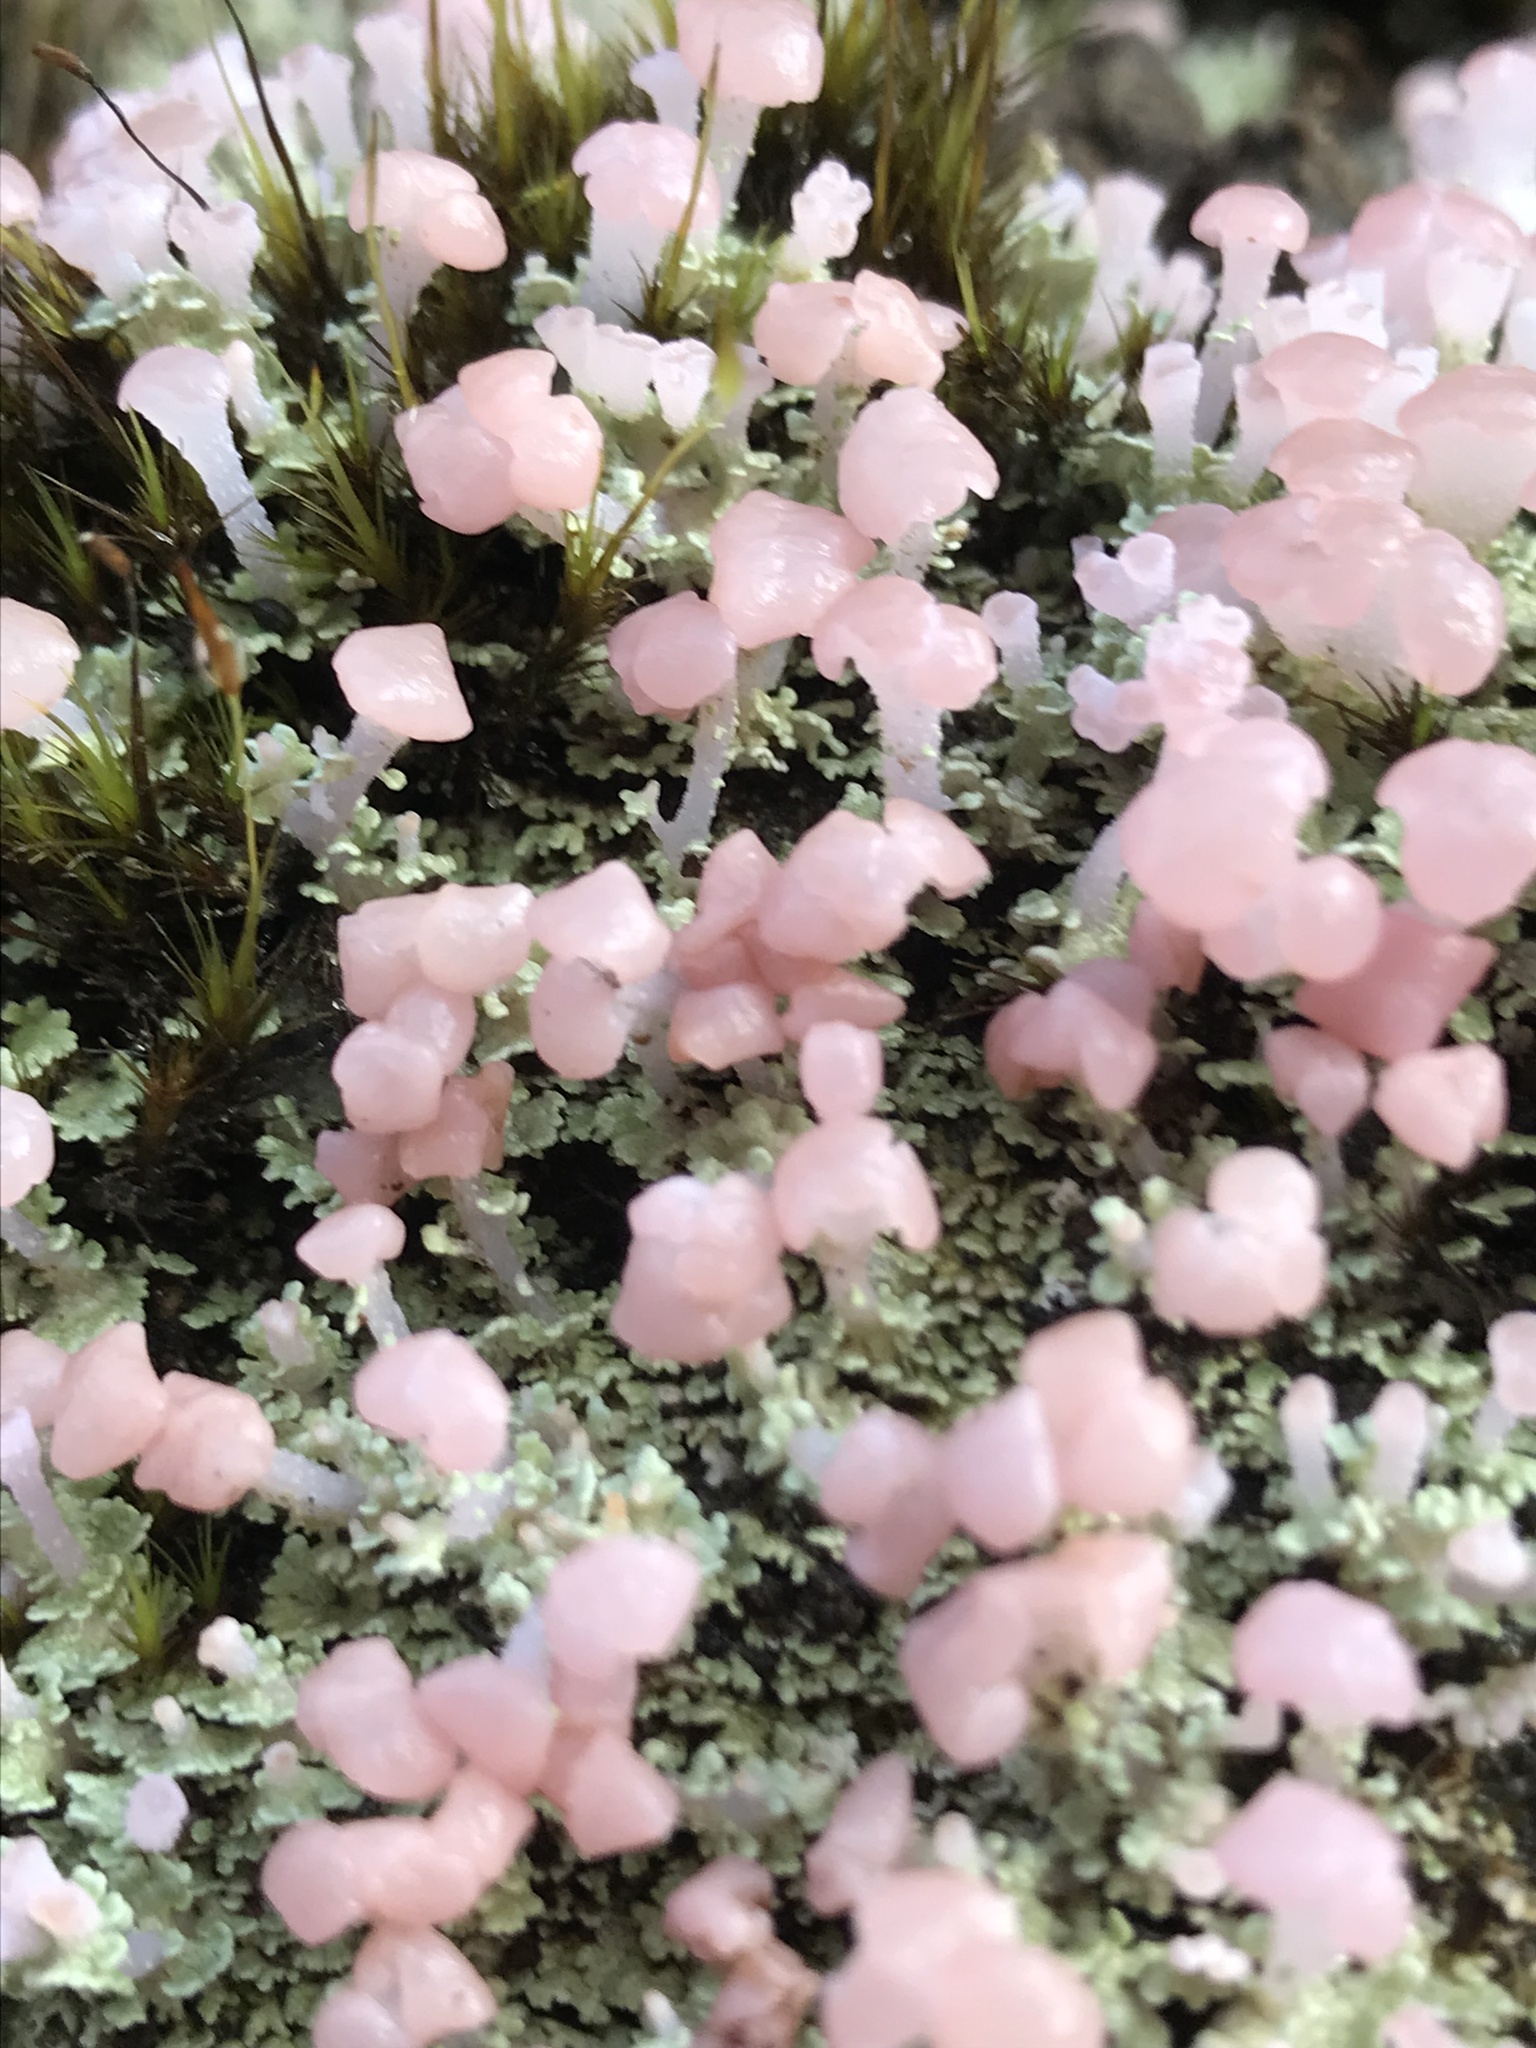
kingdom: Fungi
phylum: Ascomycota
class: Lecanoromycetes
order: Baeomycetales
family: Baeomycetaceae
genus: Phyllobaeis
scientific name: Phyllobaeis imbricata
